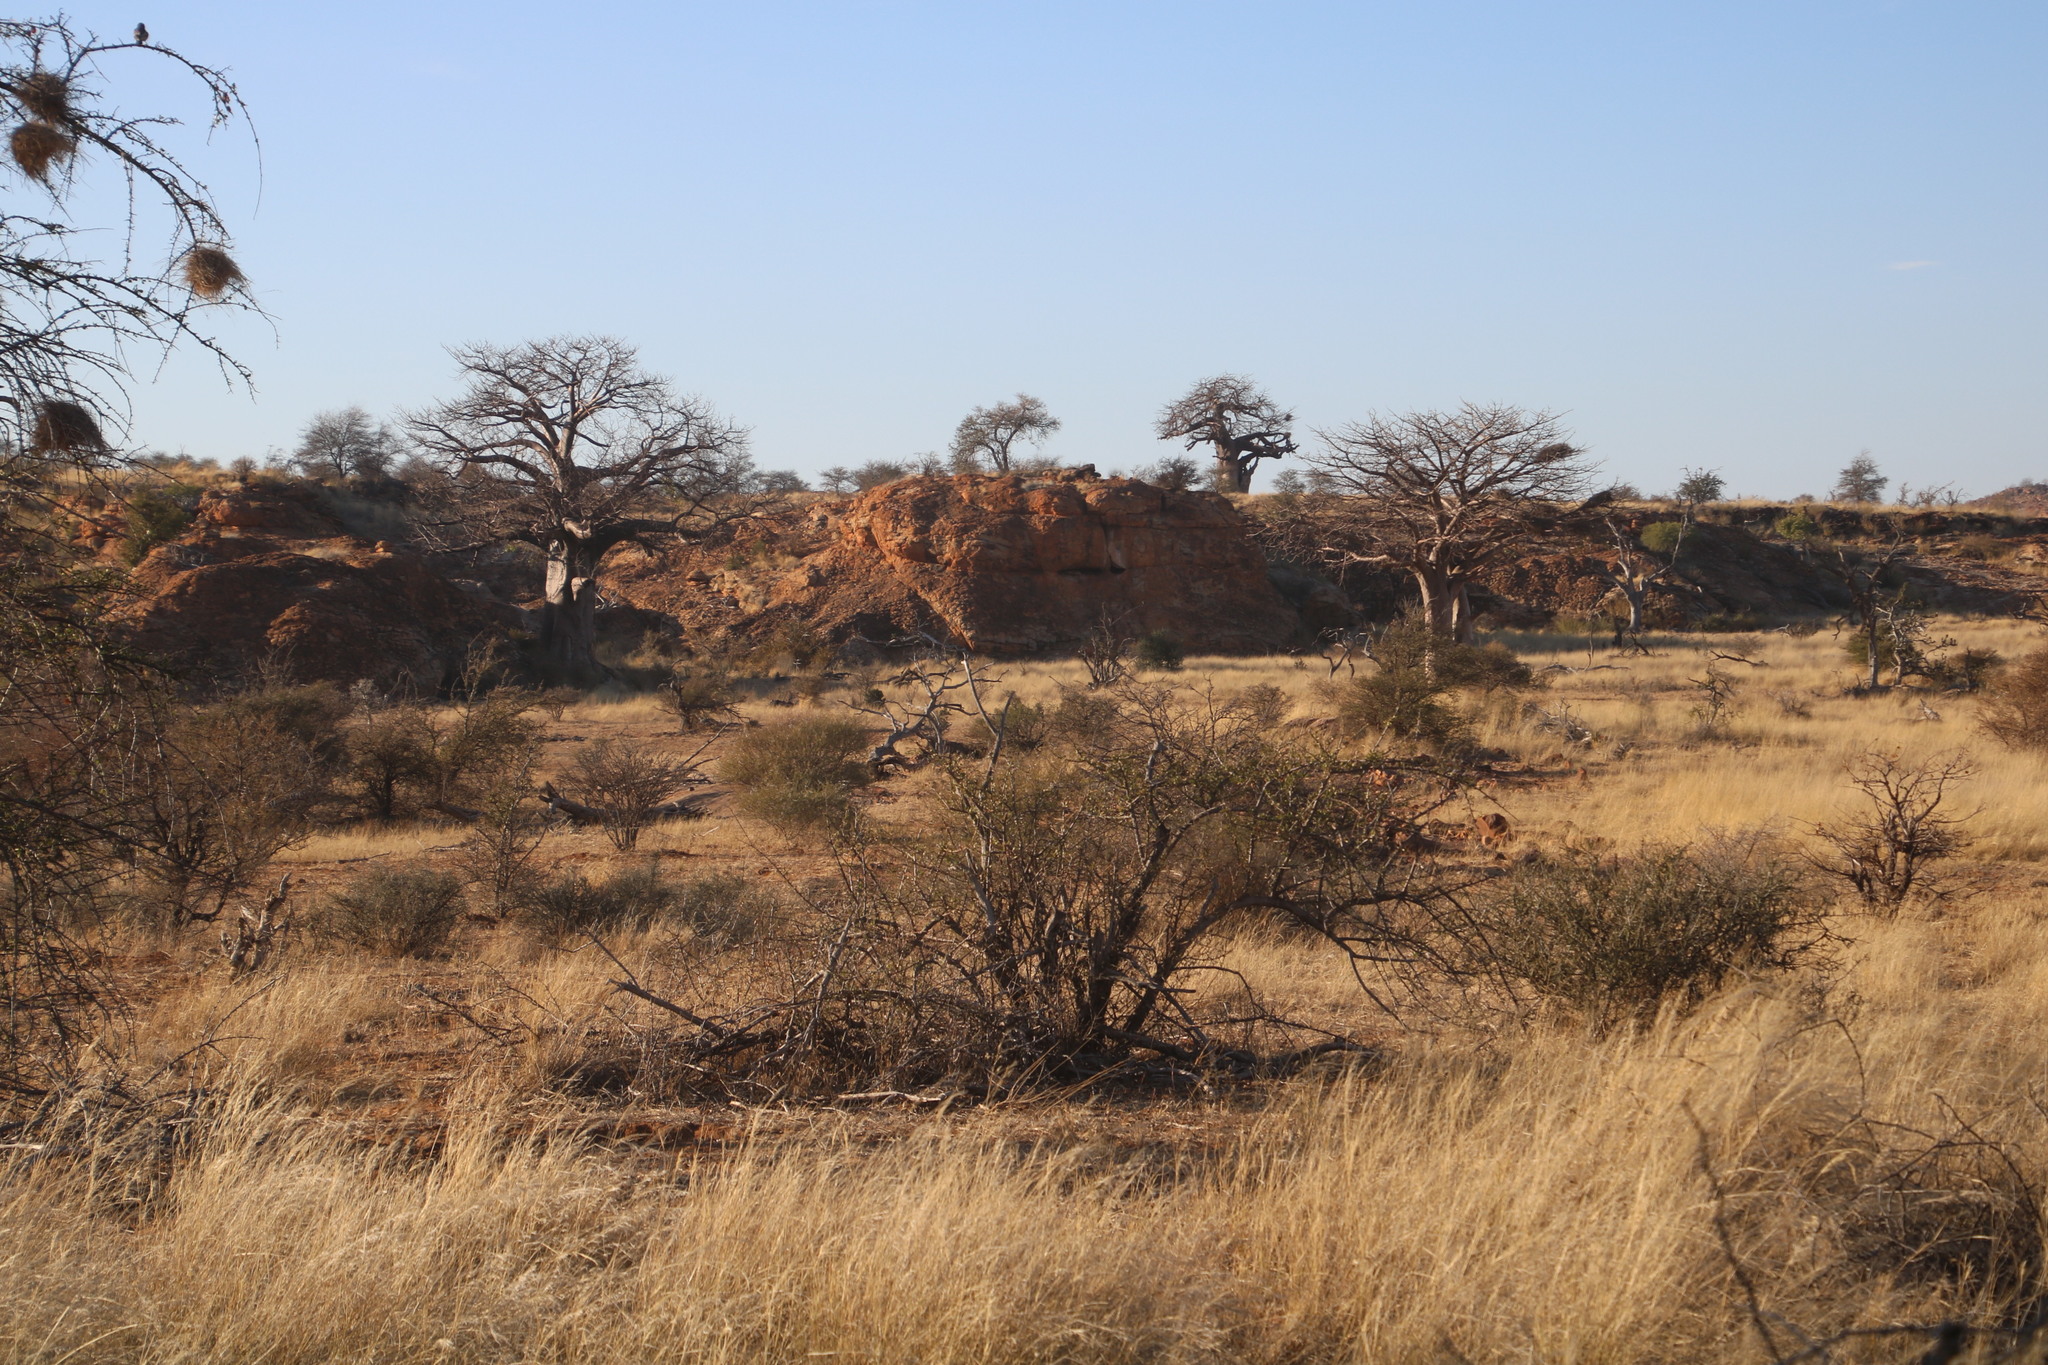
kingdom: Plantae
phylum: Tracheophyta
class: Magnoliopsida
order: Malvales
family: Malvaceae
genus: Adansonia
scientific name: Adansonia digitata
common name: Dead-rat-tree
